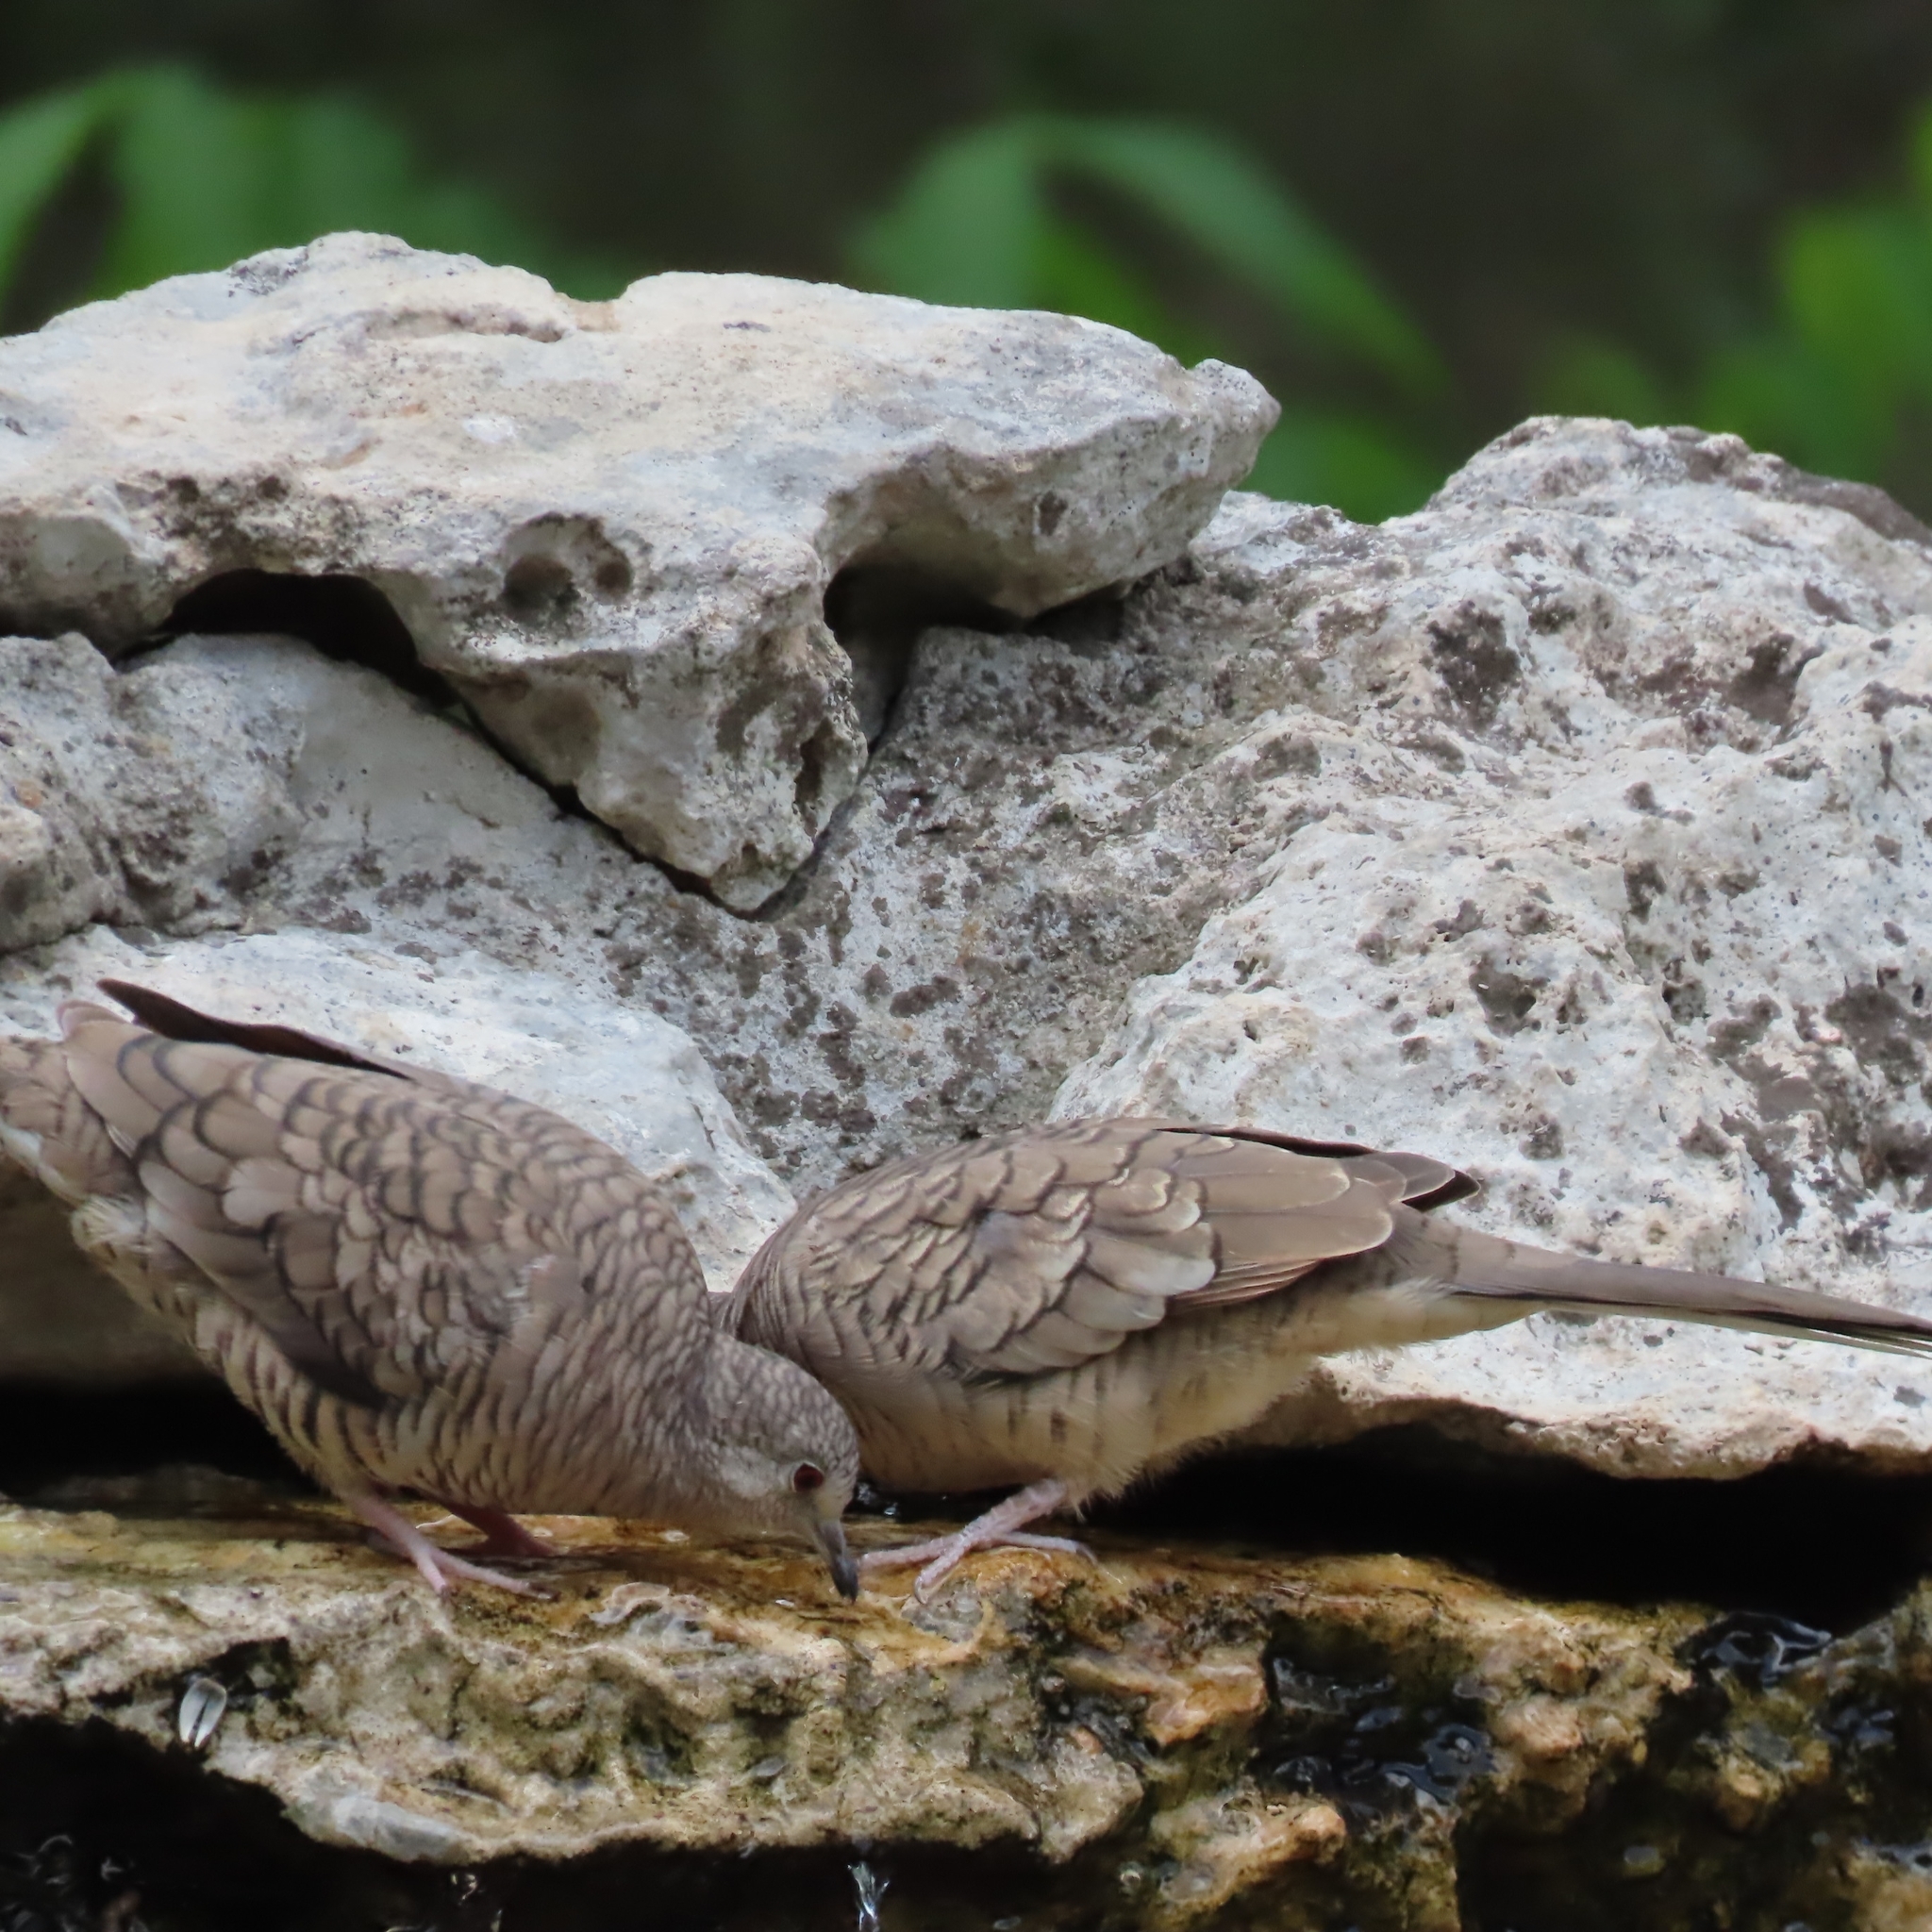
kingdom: Animalia
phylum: Chordata
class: Aves
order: Columbiformes
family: Columbidae
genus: Columbina
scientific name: Columbina inca
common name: Inca dove
